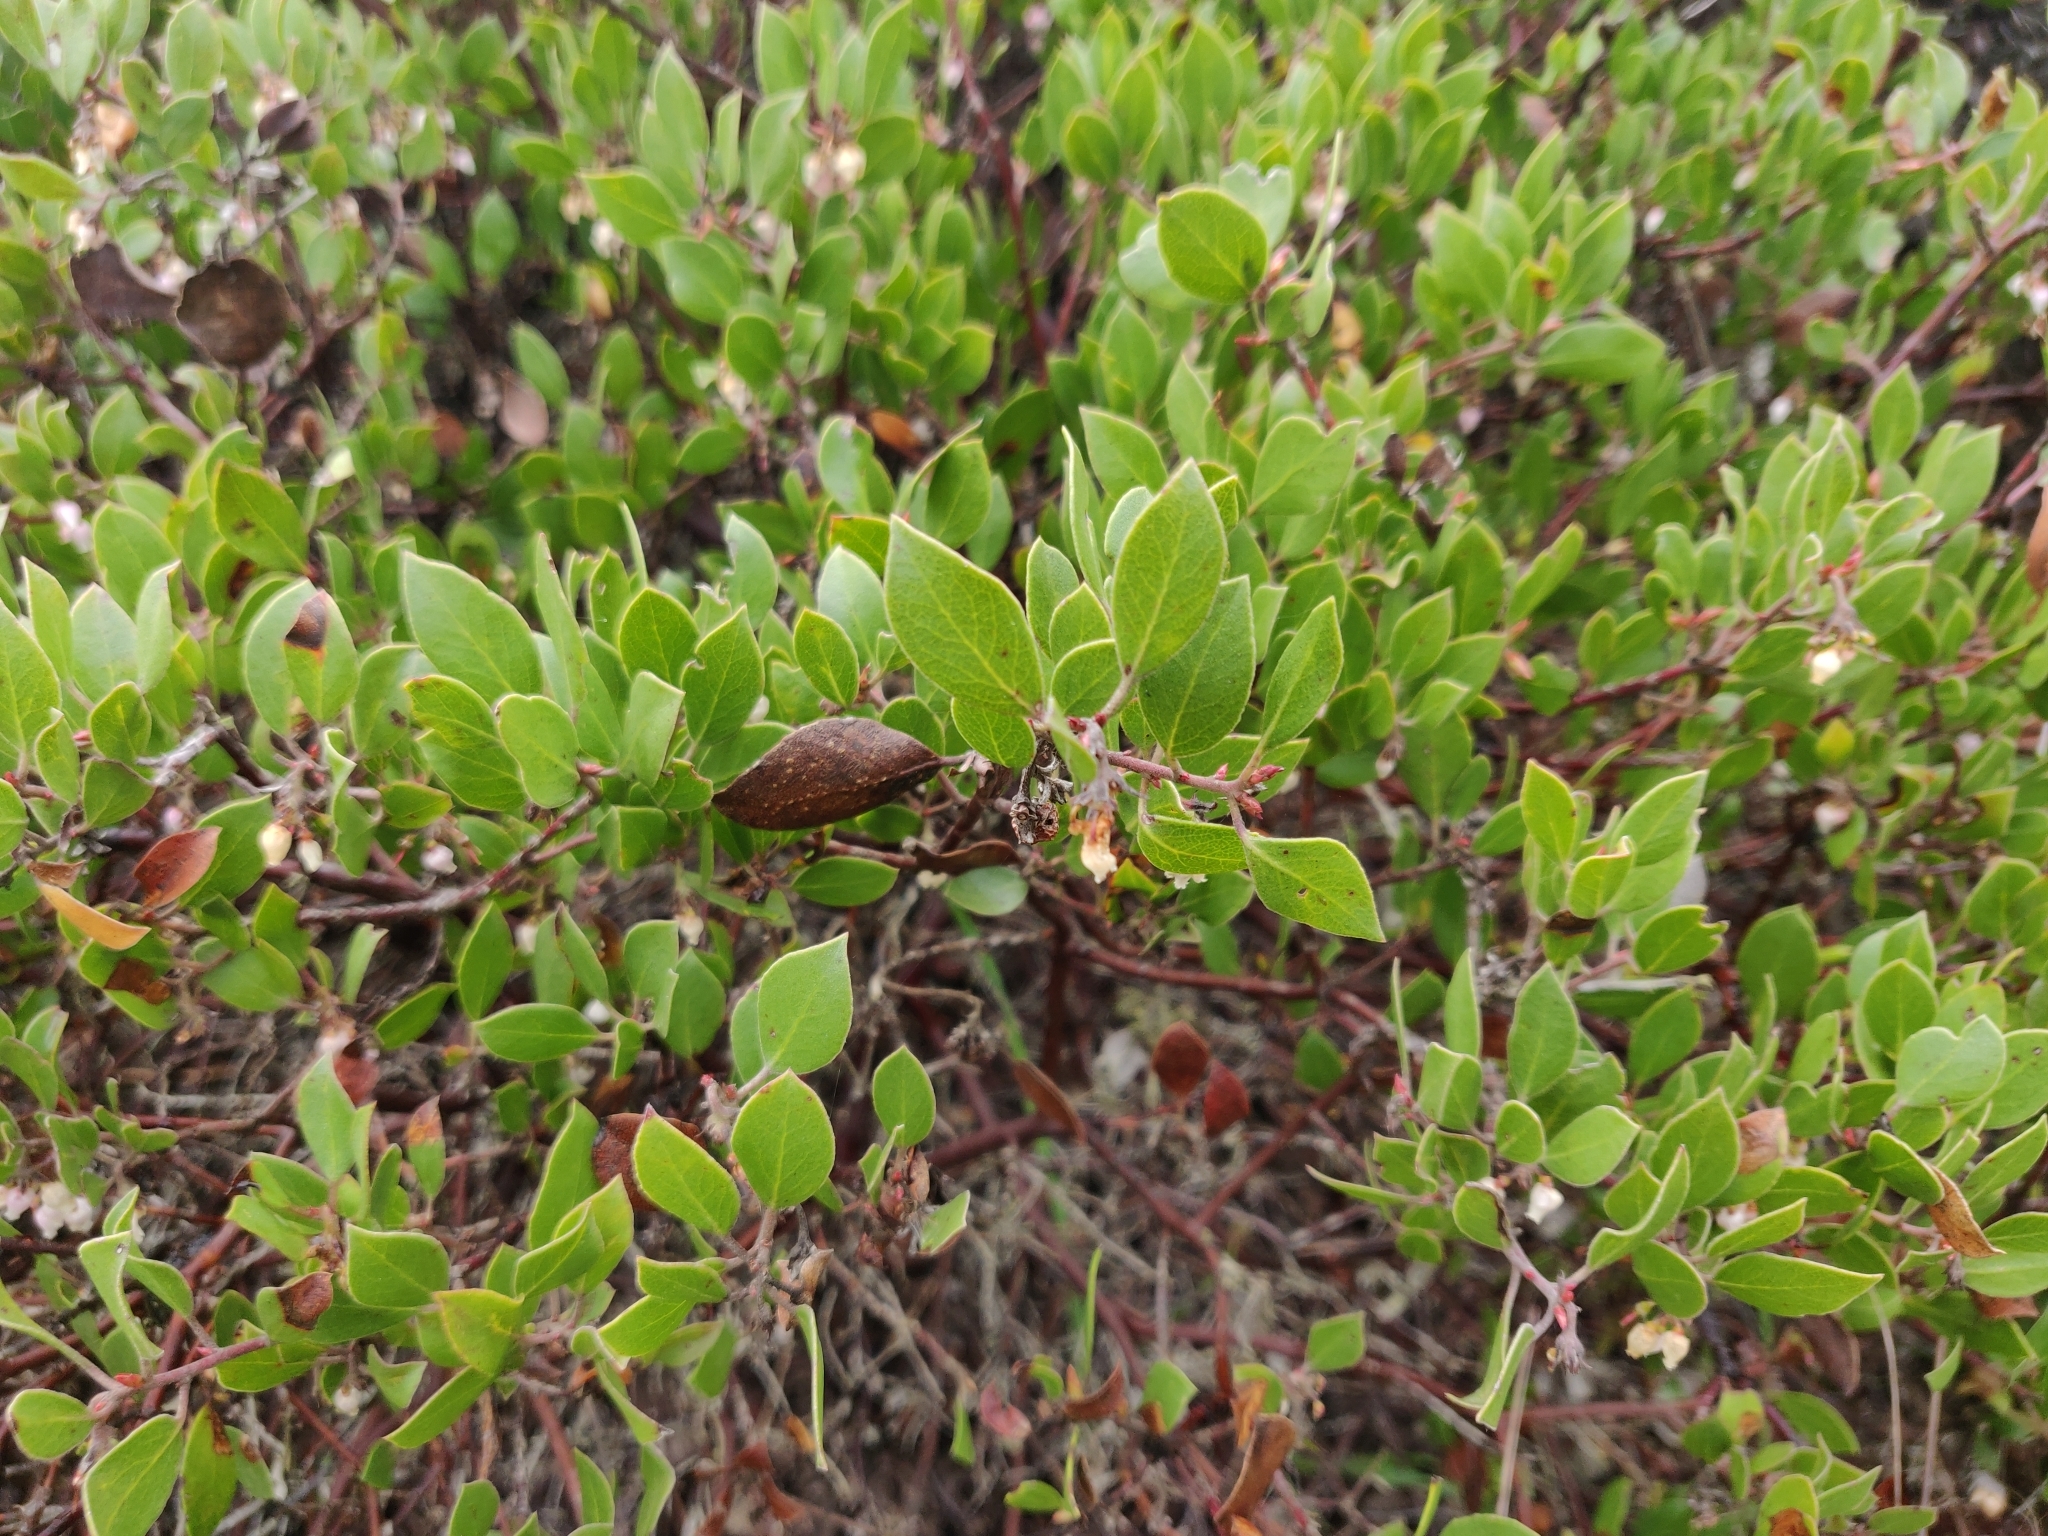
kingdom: Plantae
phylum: Tracheophyta
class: Magnoliopsida
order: Ericales
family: Ericaceae
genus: Arctostaphylos
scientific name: Arctostaphylos hookeri
